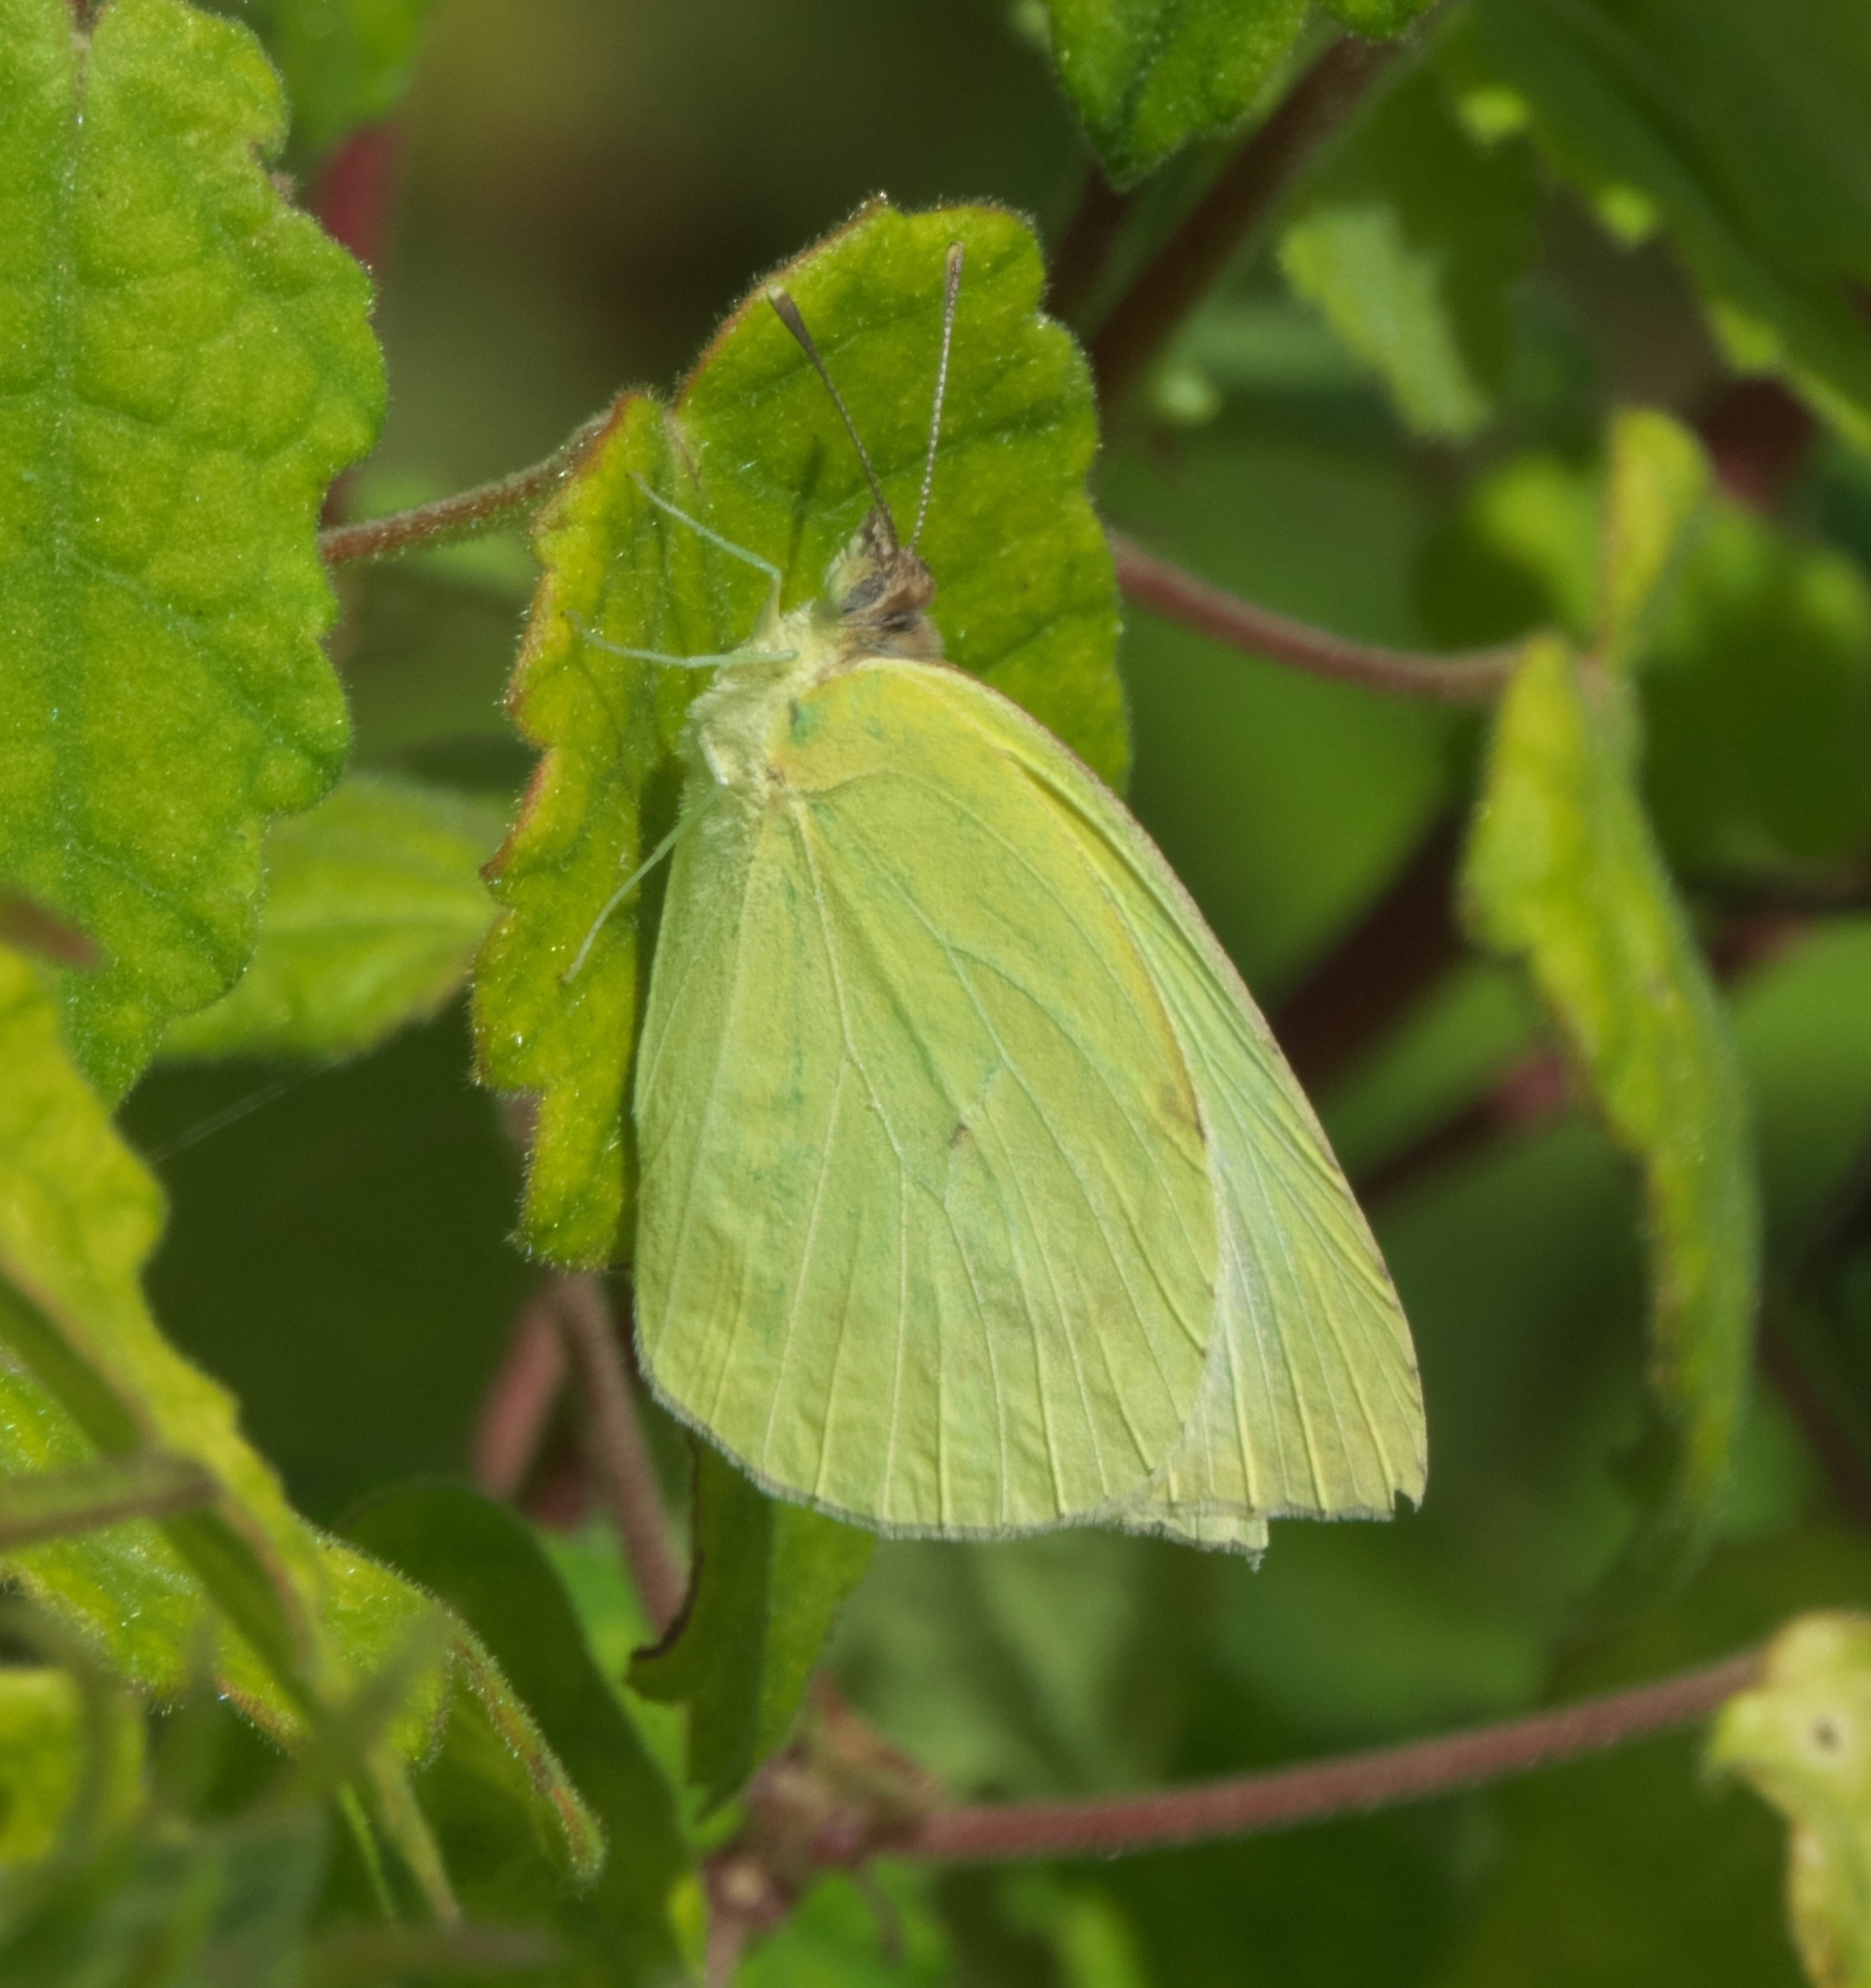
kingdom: Animalia
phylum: Arthropoda
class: Insecta
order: Lepidoptera
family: Pieridae
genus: Kricogonia
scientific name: Kricogonia lyside
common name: Guayacan sulphur,
